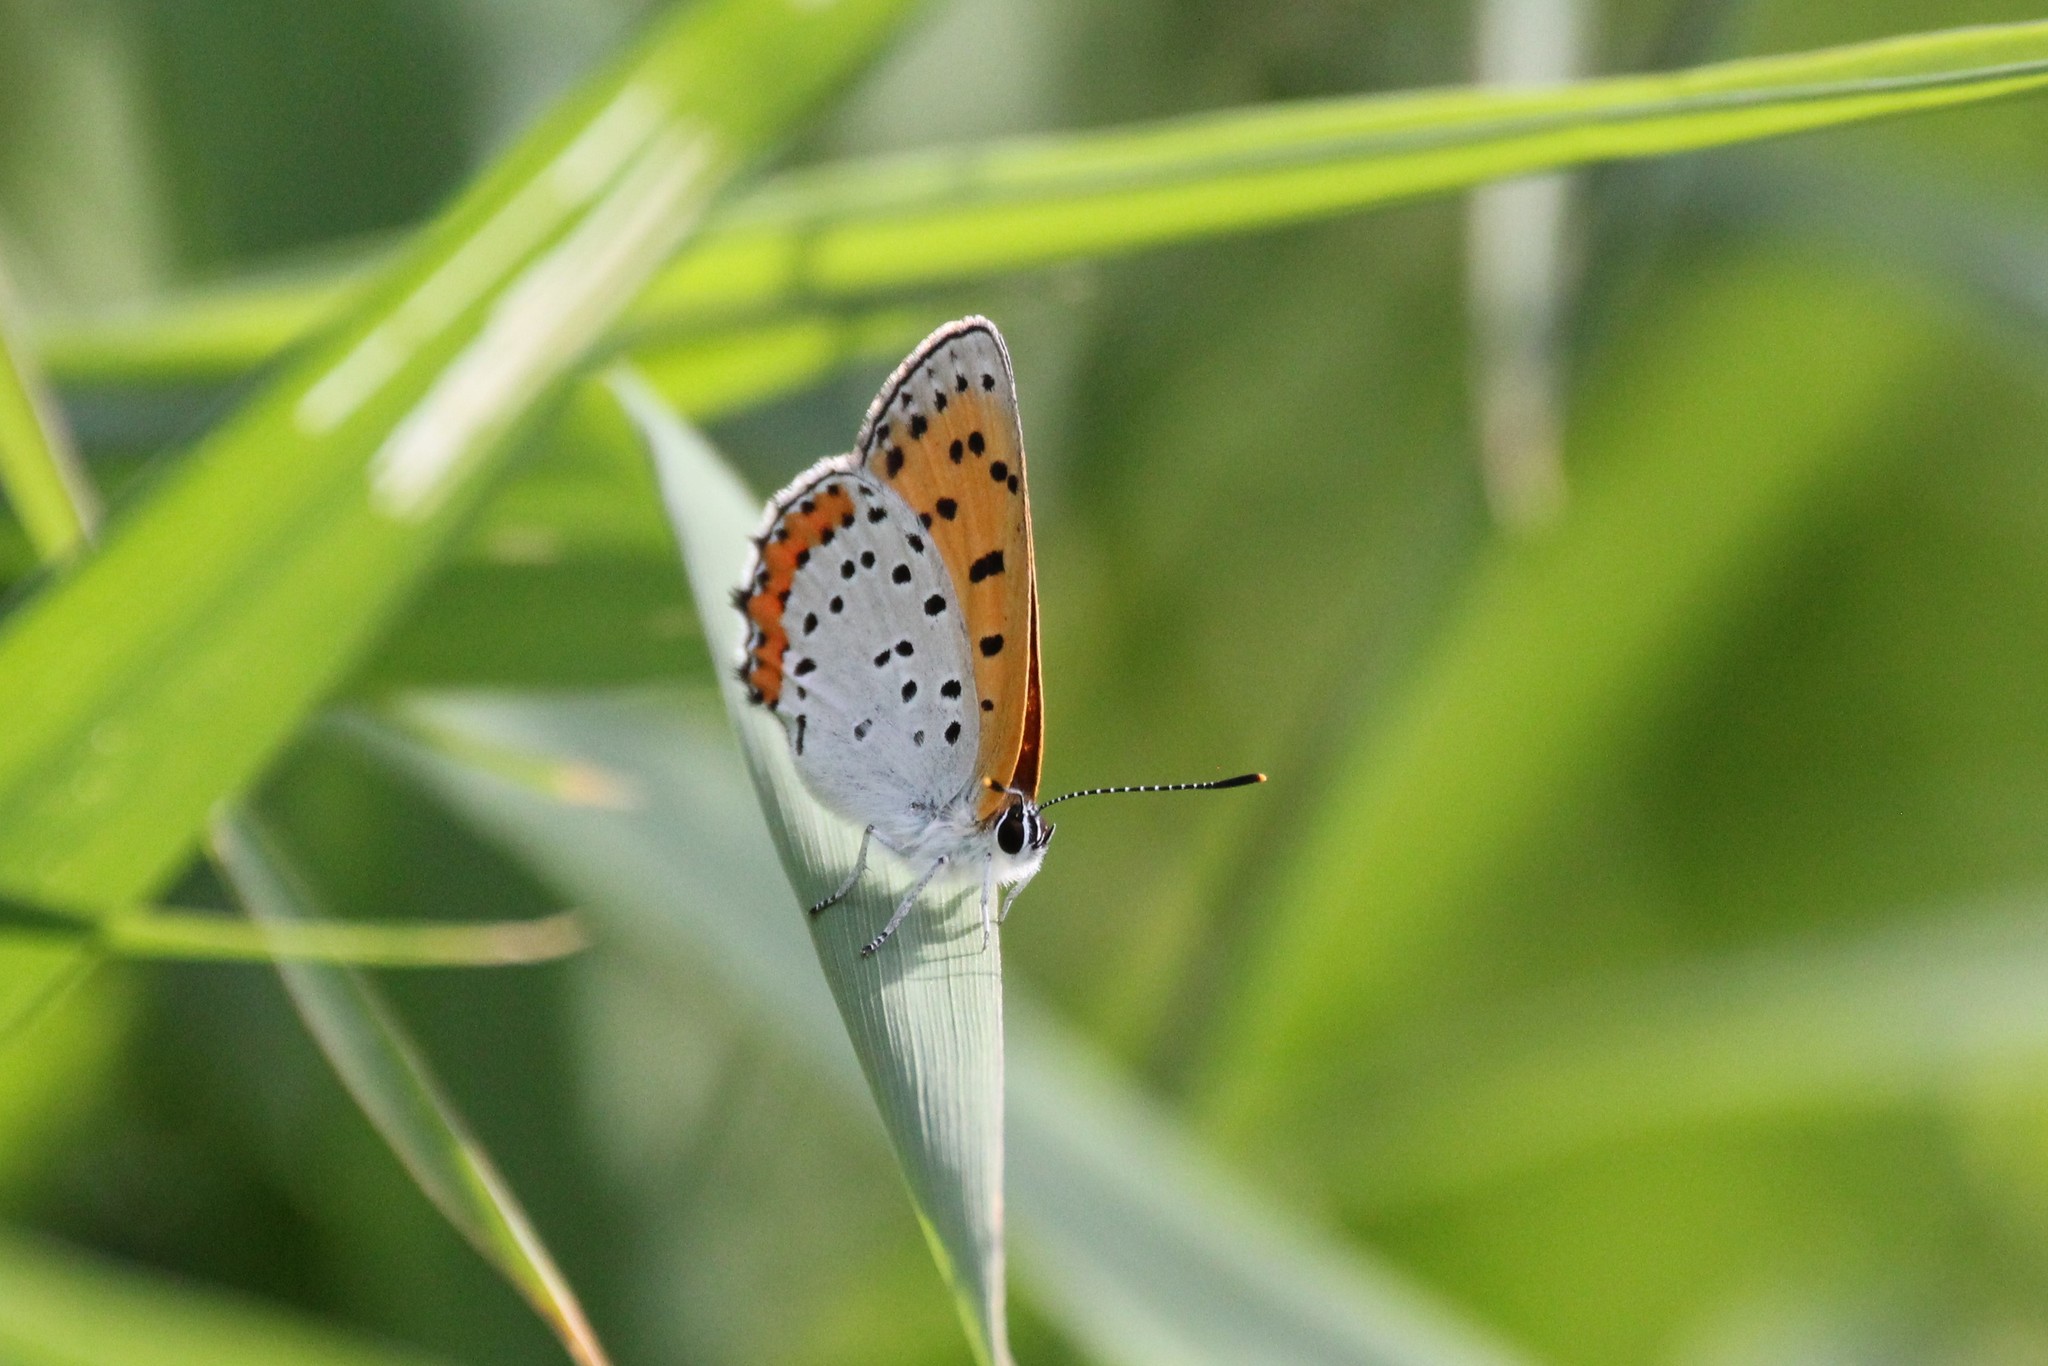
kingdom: Animalia
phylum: Arthropoda
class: Insecta
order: Lepidoptera
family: Lycaenidae
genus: Tharsalea
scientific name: Tharsalea hyllus
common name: Bronze copper
